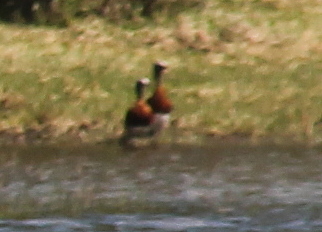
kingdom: Animalia
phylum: Chordata
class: Aves
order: Anseriformes
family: Anatidae
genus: Chloephaga
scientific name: Chloephaga poliocephala
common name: Ashy-headed goose
